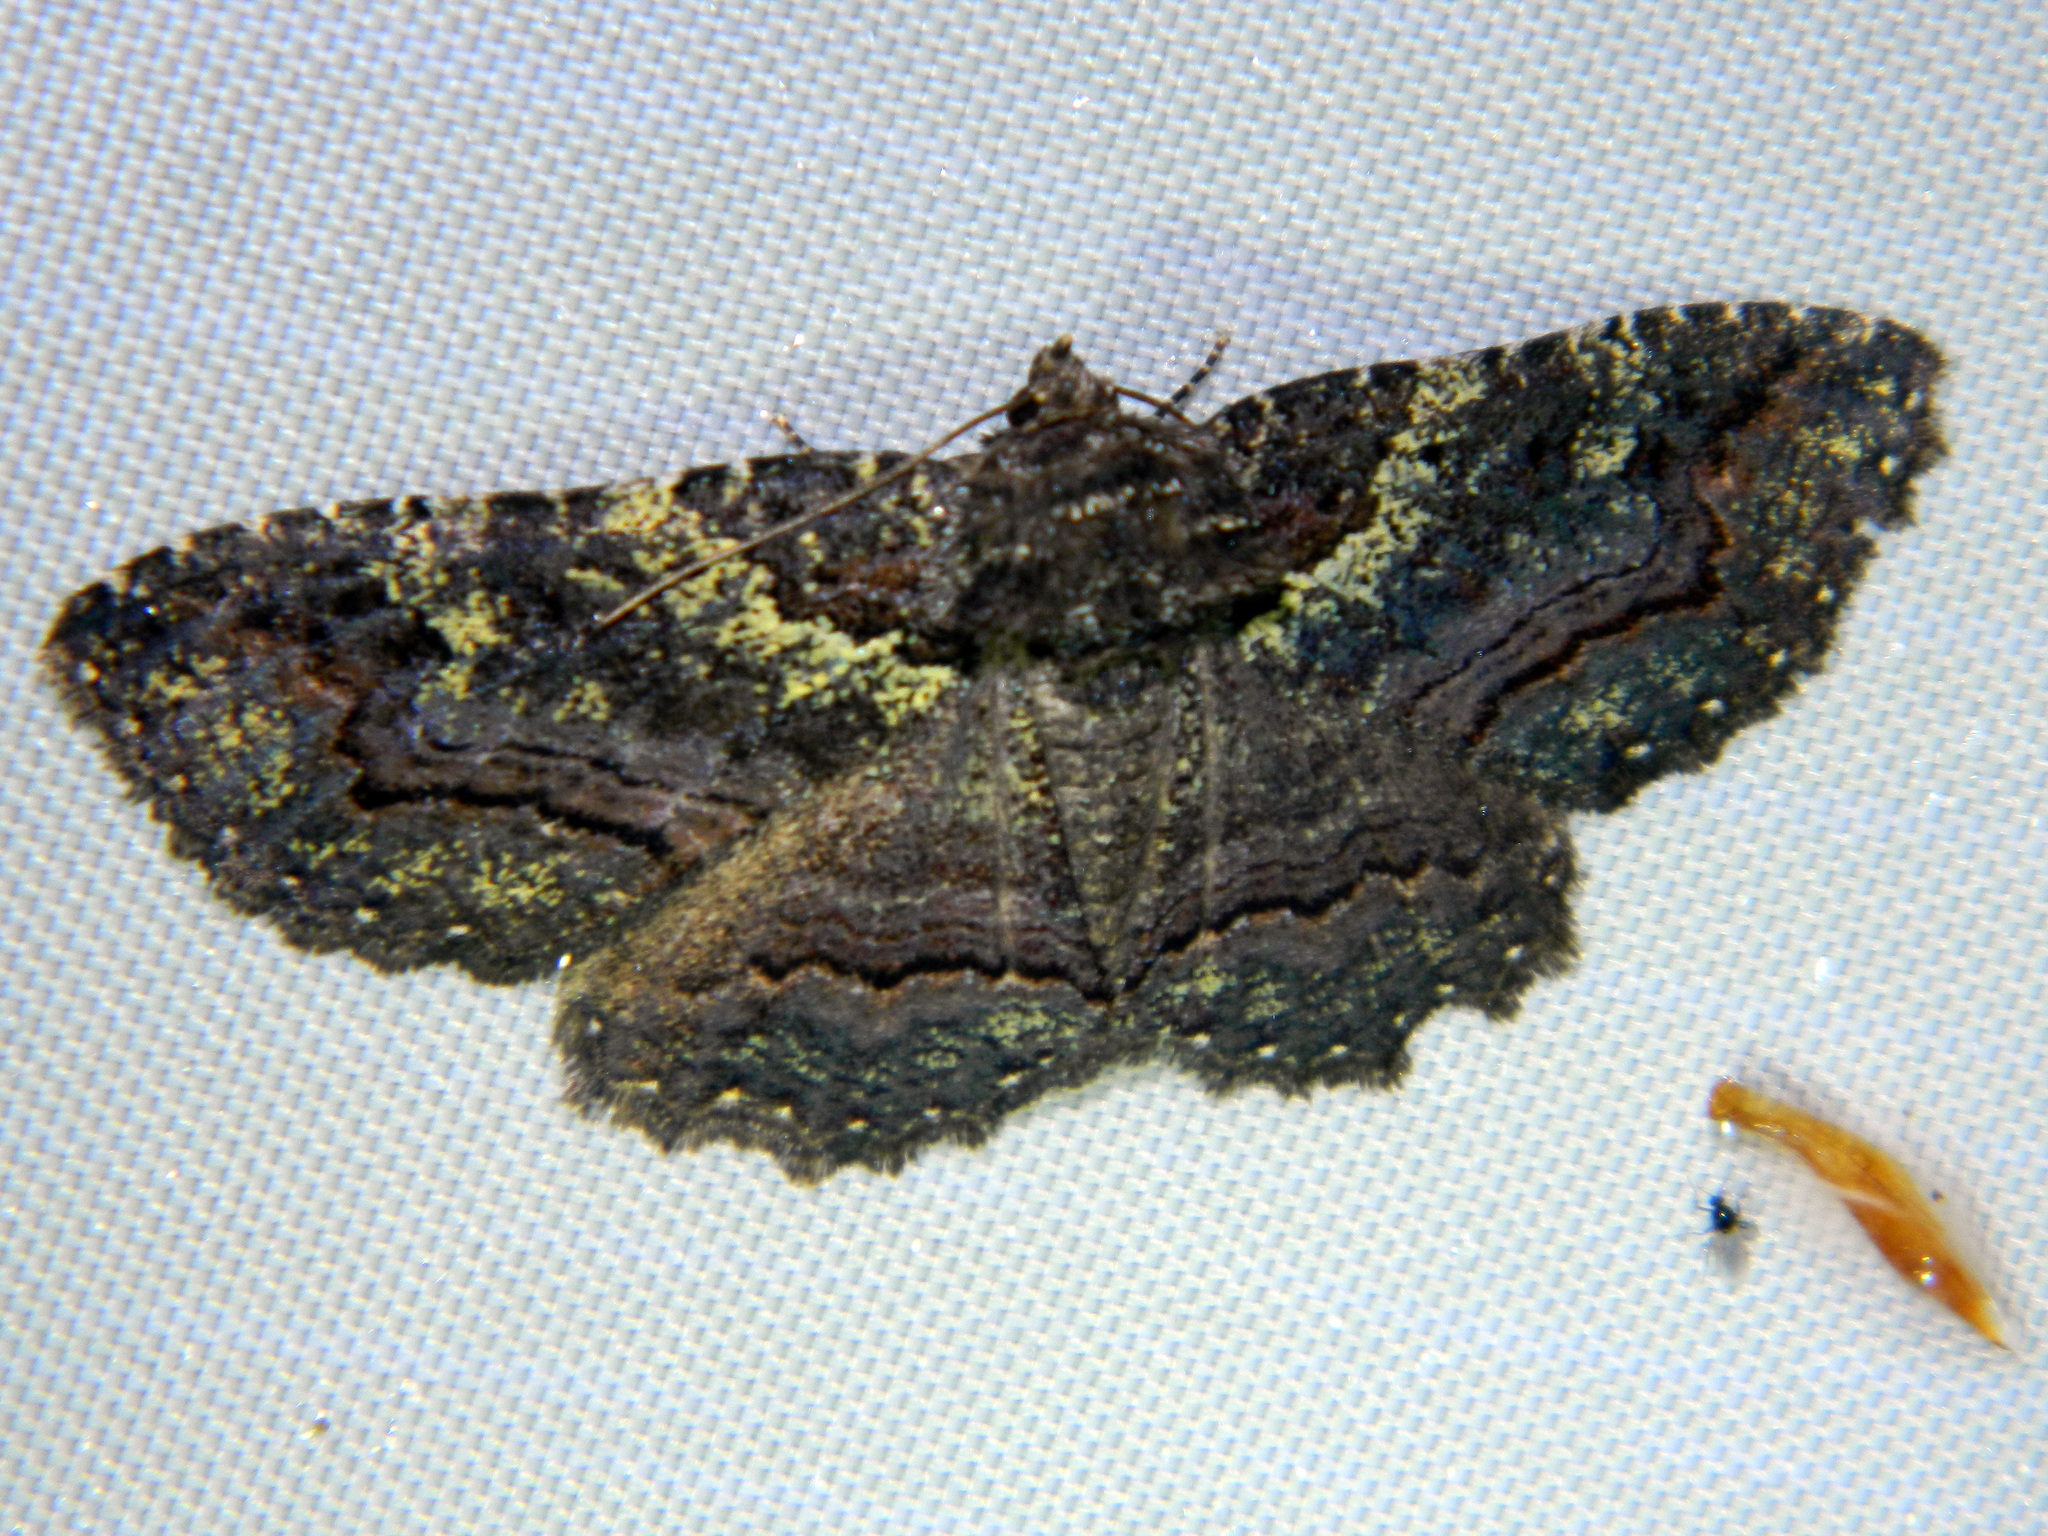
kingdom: Animalia
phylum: Arthropoda
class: Insecta
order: Lepidoptera
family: Erebidae
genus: Zale
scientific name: Zale aeruginosa
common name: Green-dusted zale moth
